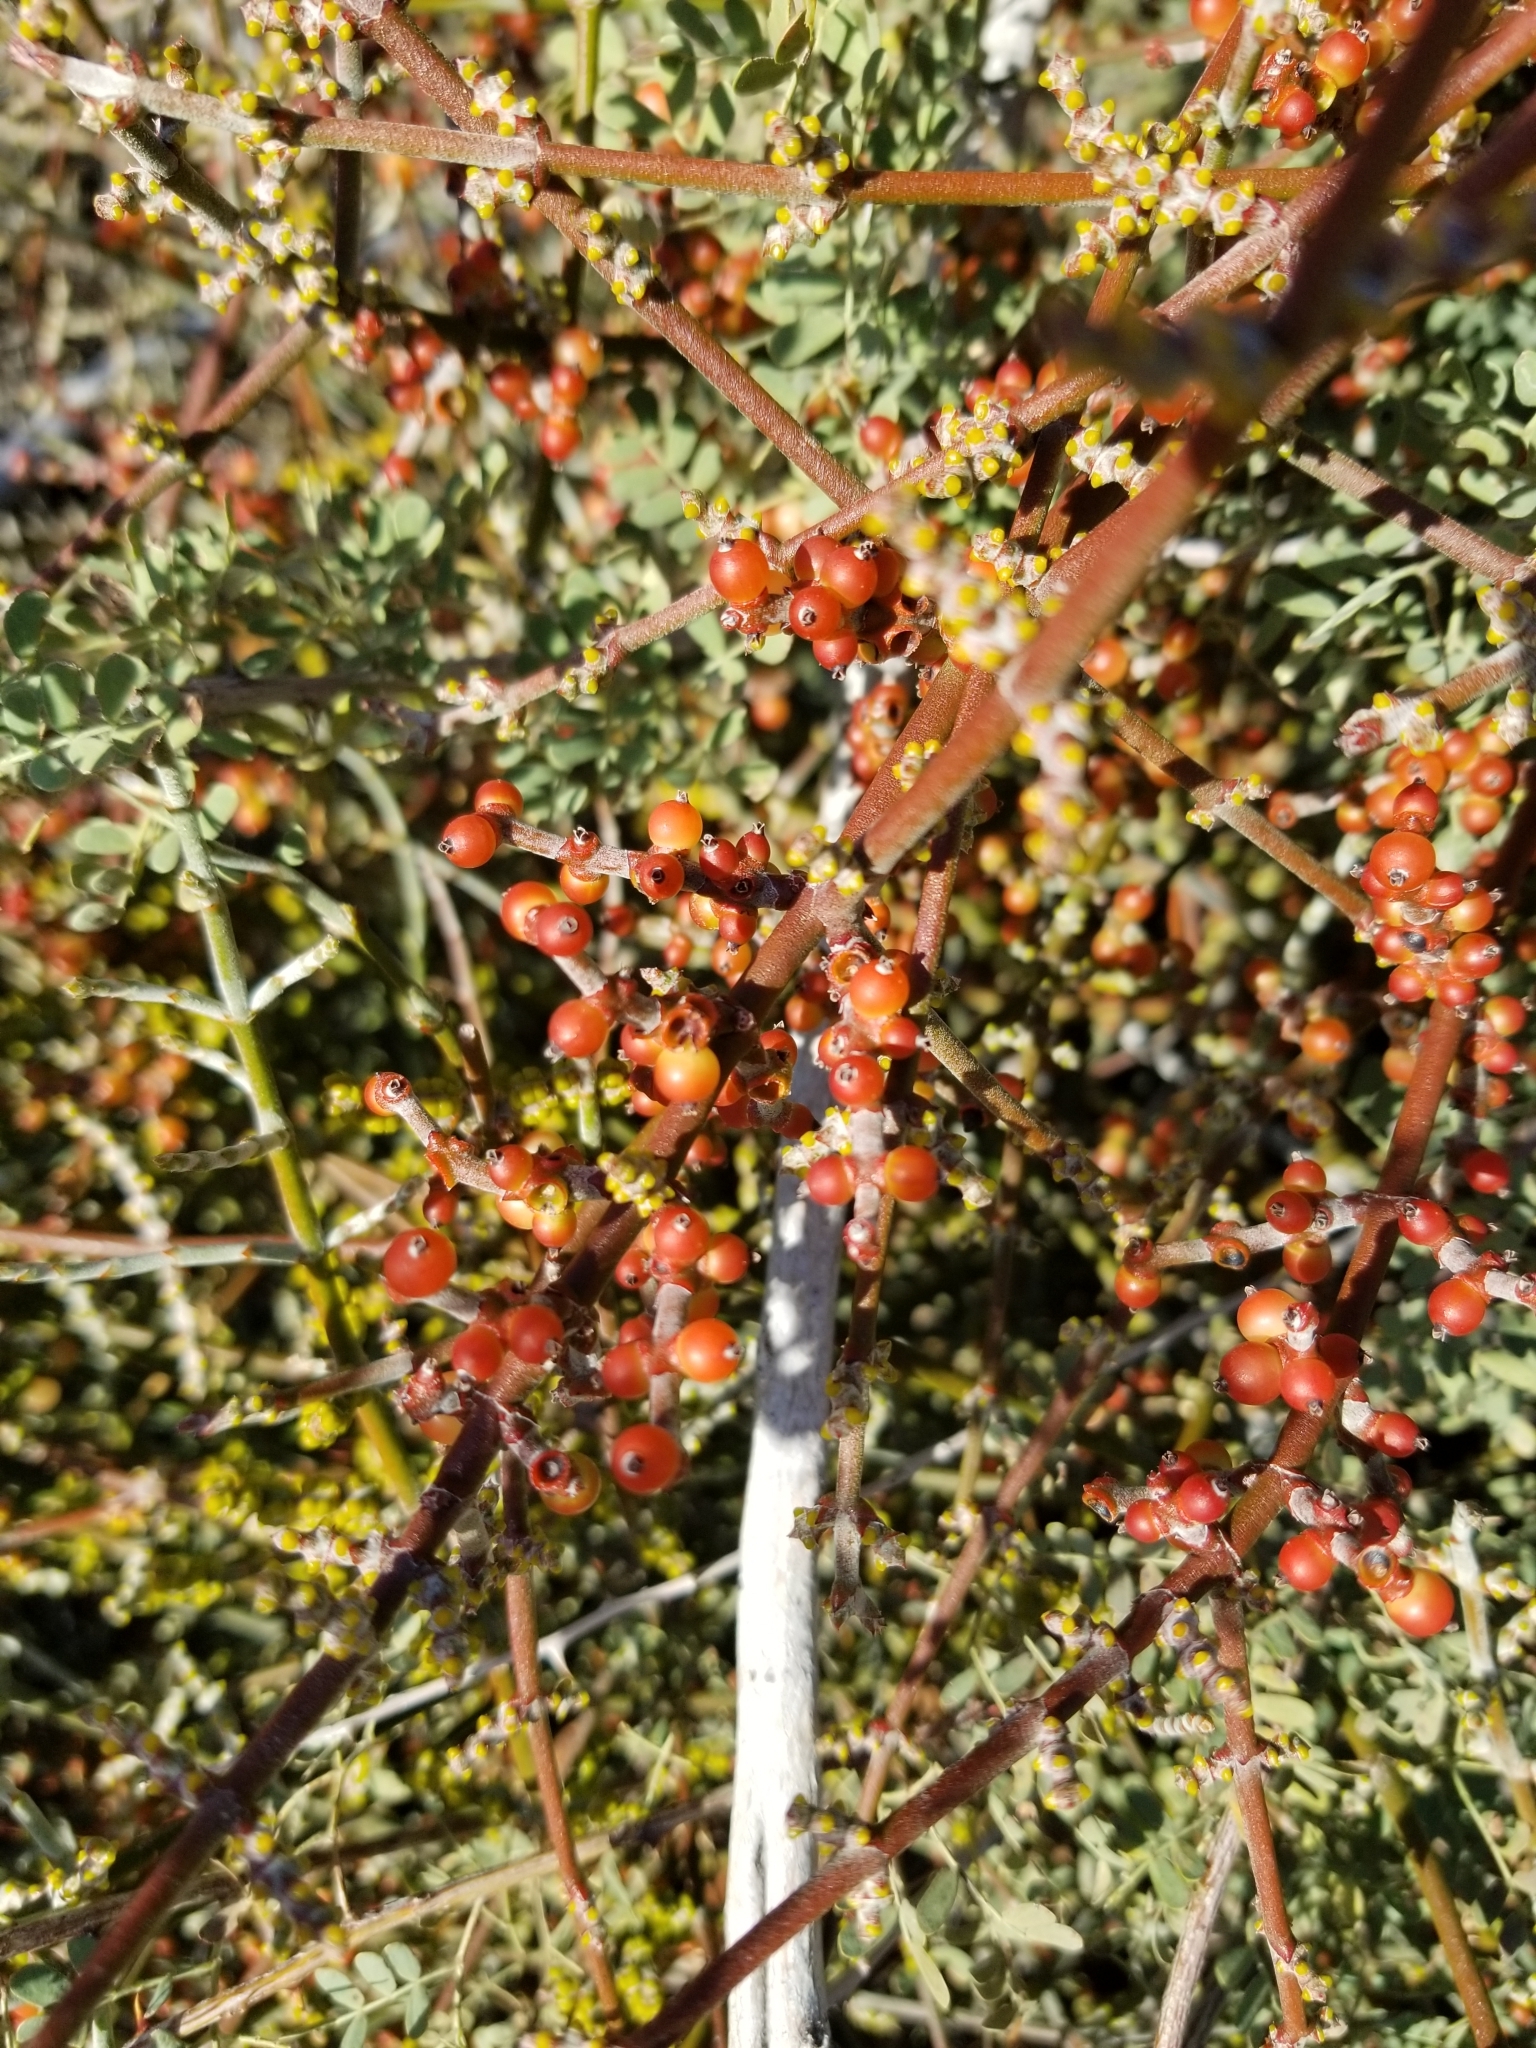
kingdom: Plantae
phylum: Tracheophyta
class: Magnoliopsida
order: Santalales
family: Viscaceae
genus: Phoradendron
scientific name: Phoradendron californicum
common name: Acacia mistletoe
